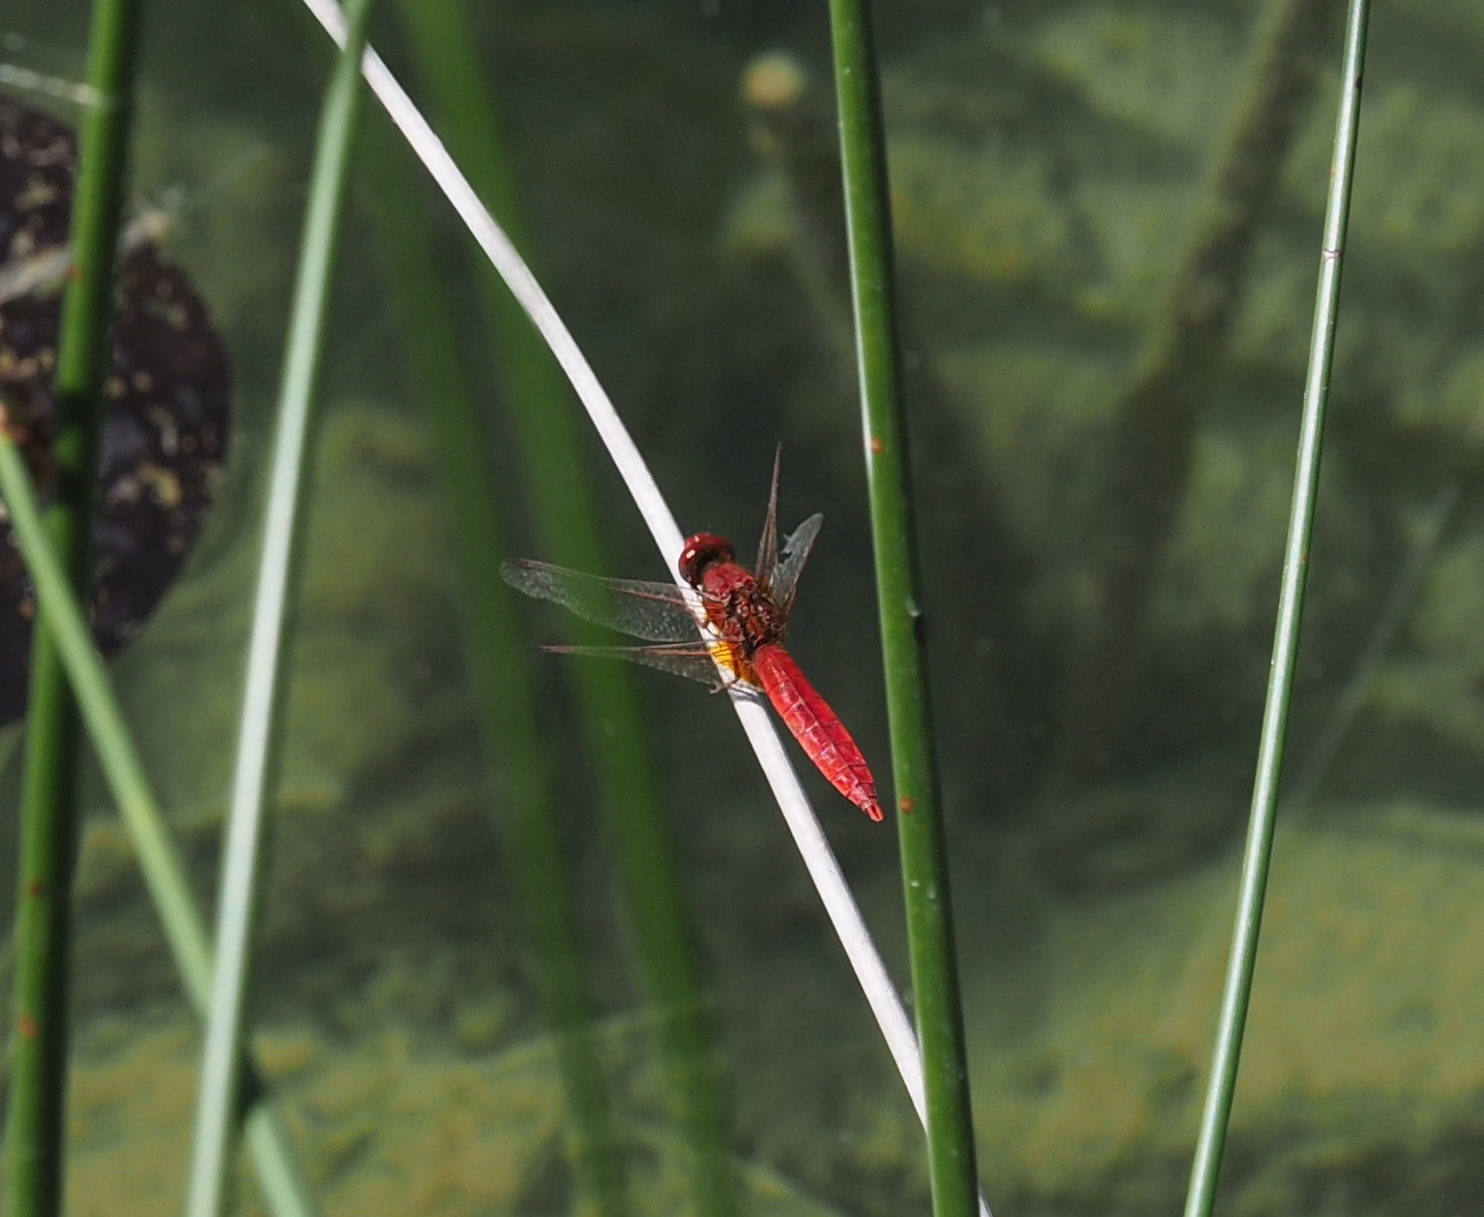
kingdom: Animalia
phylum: Arthropoda
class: Insecta
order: Odonata
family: Libellulidae
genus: Crocothemis
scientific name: Crocothemis erythraea
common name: Scarlet dragonfly
